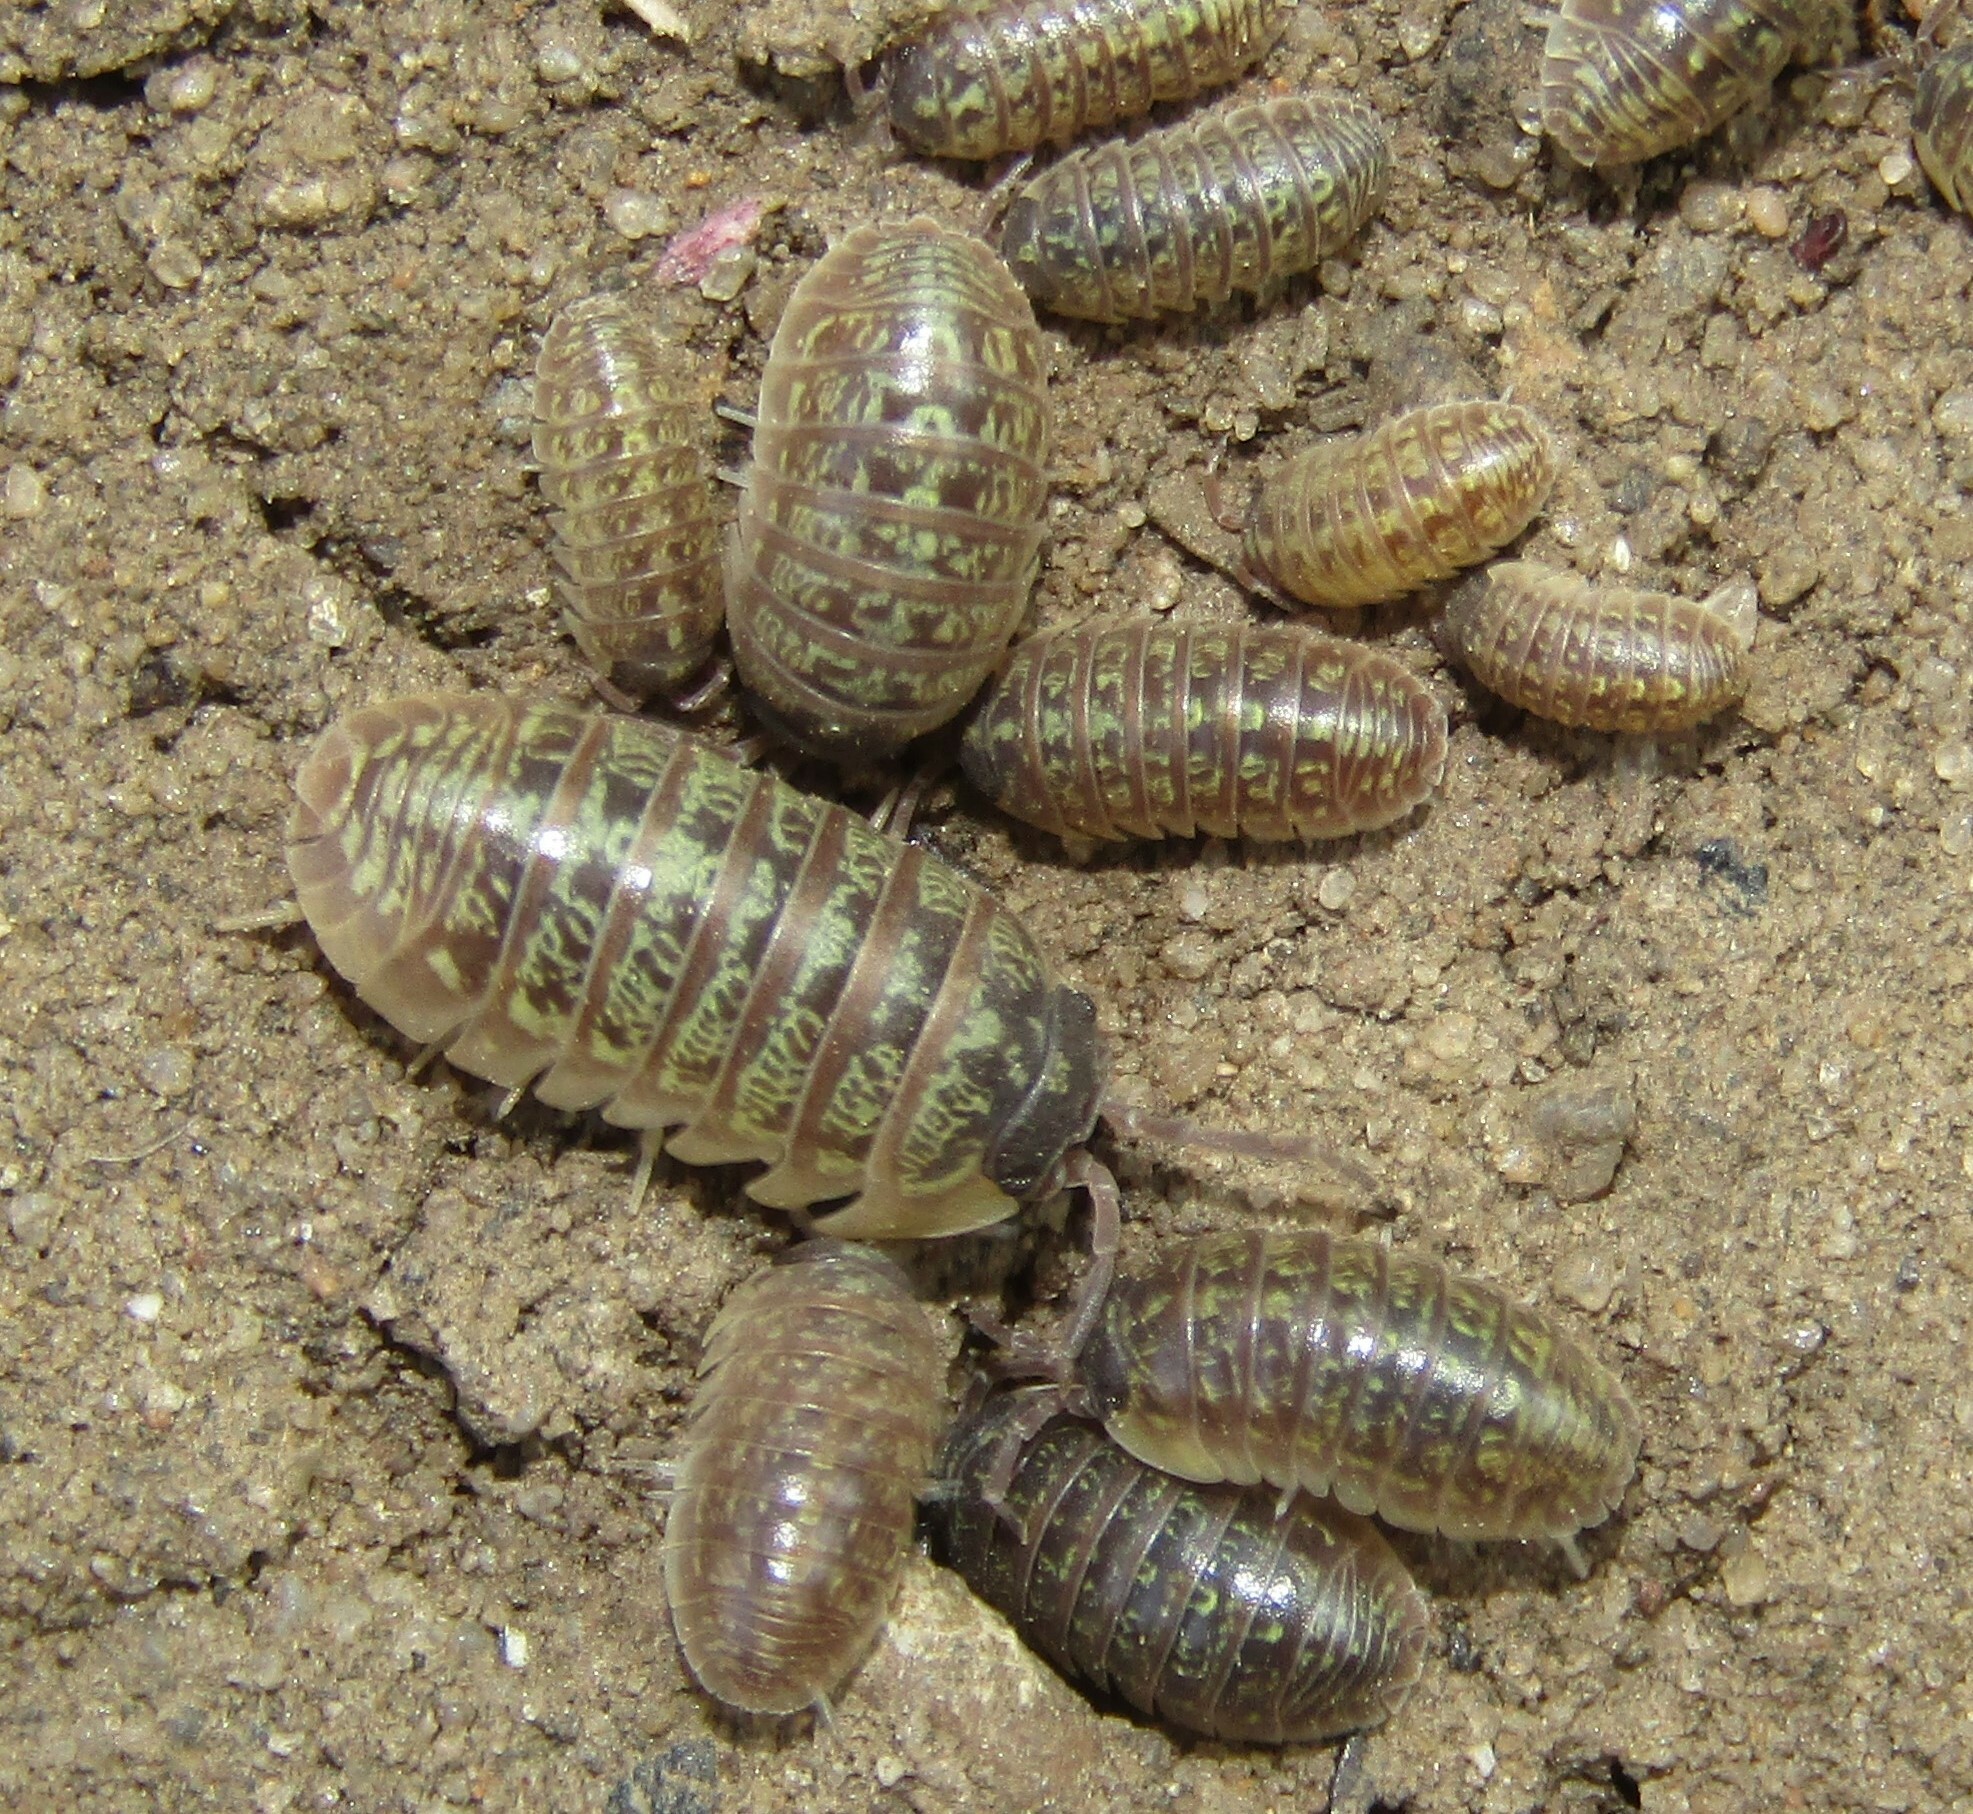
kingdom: Animalia
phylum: Arthropoda
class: Malacostraca
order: Isopoda
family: Armadillidiidae
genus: Armadillidium
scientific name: Armadillidium versicolor
